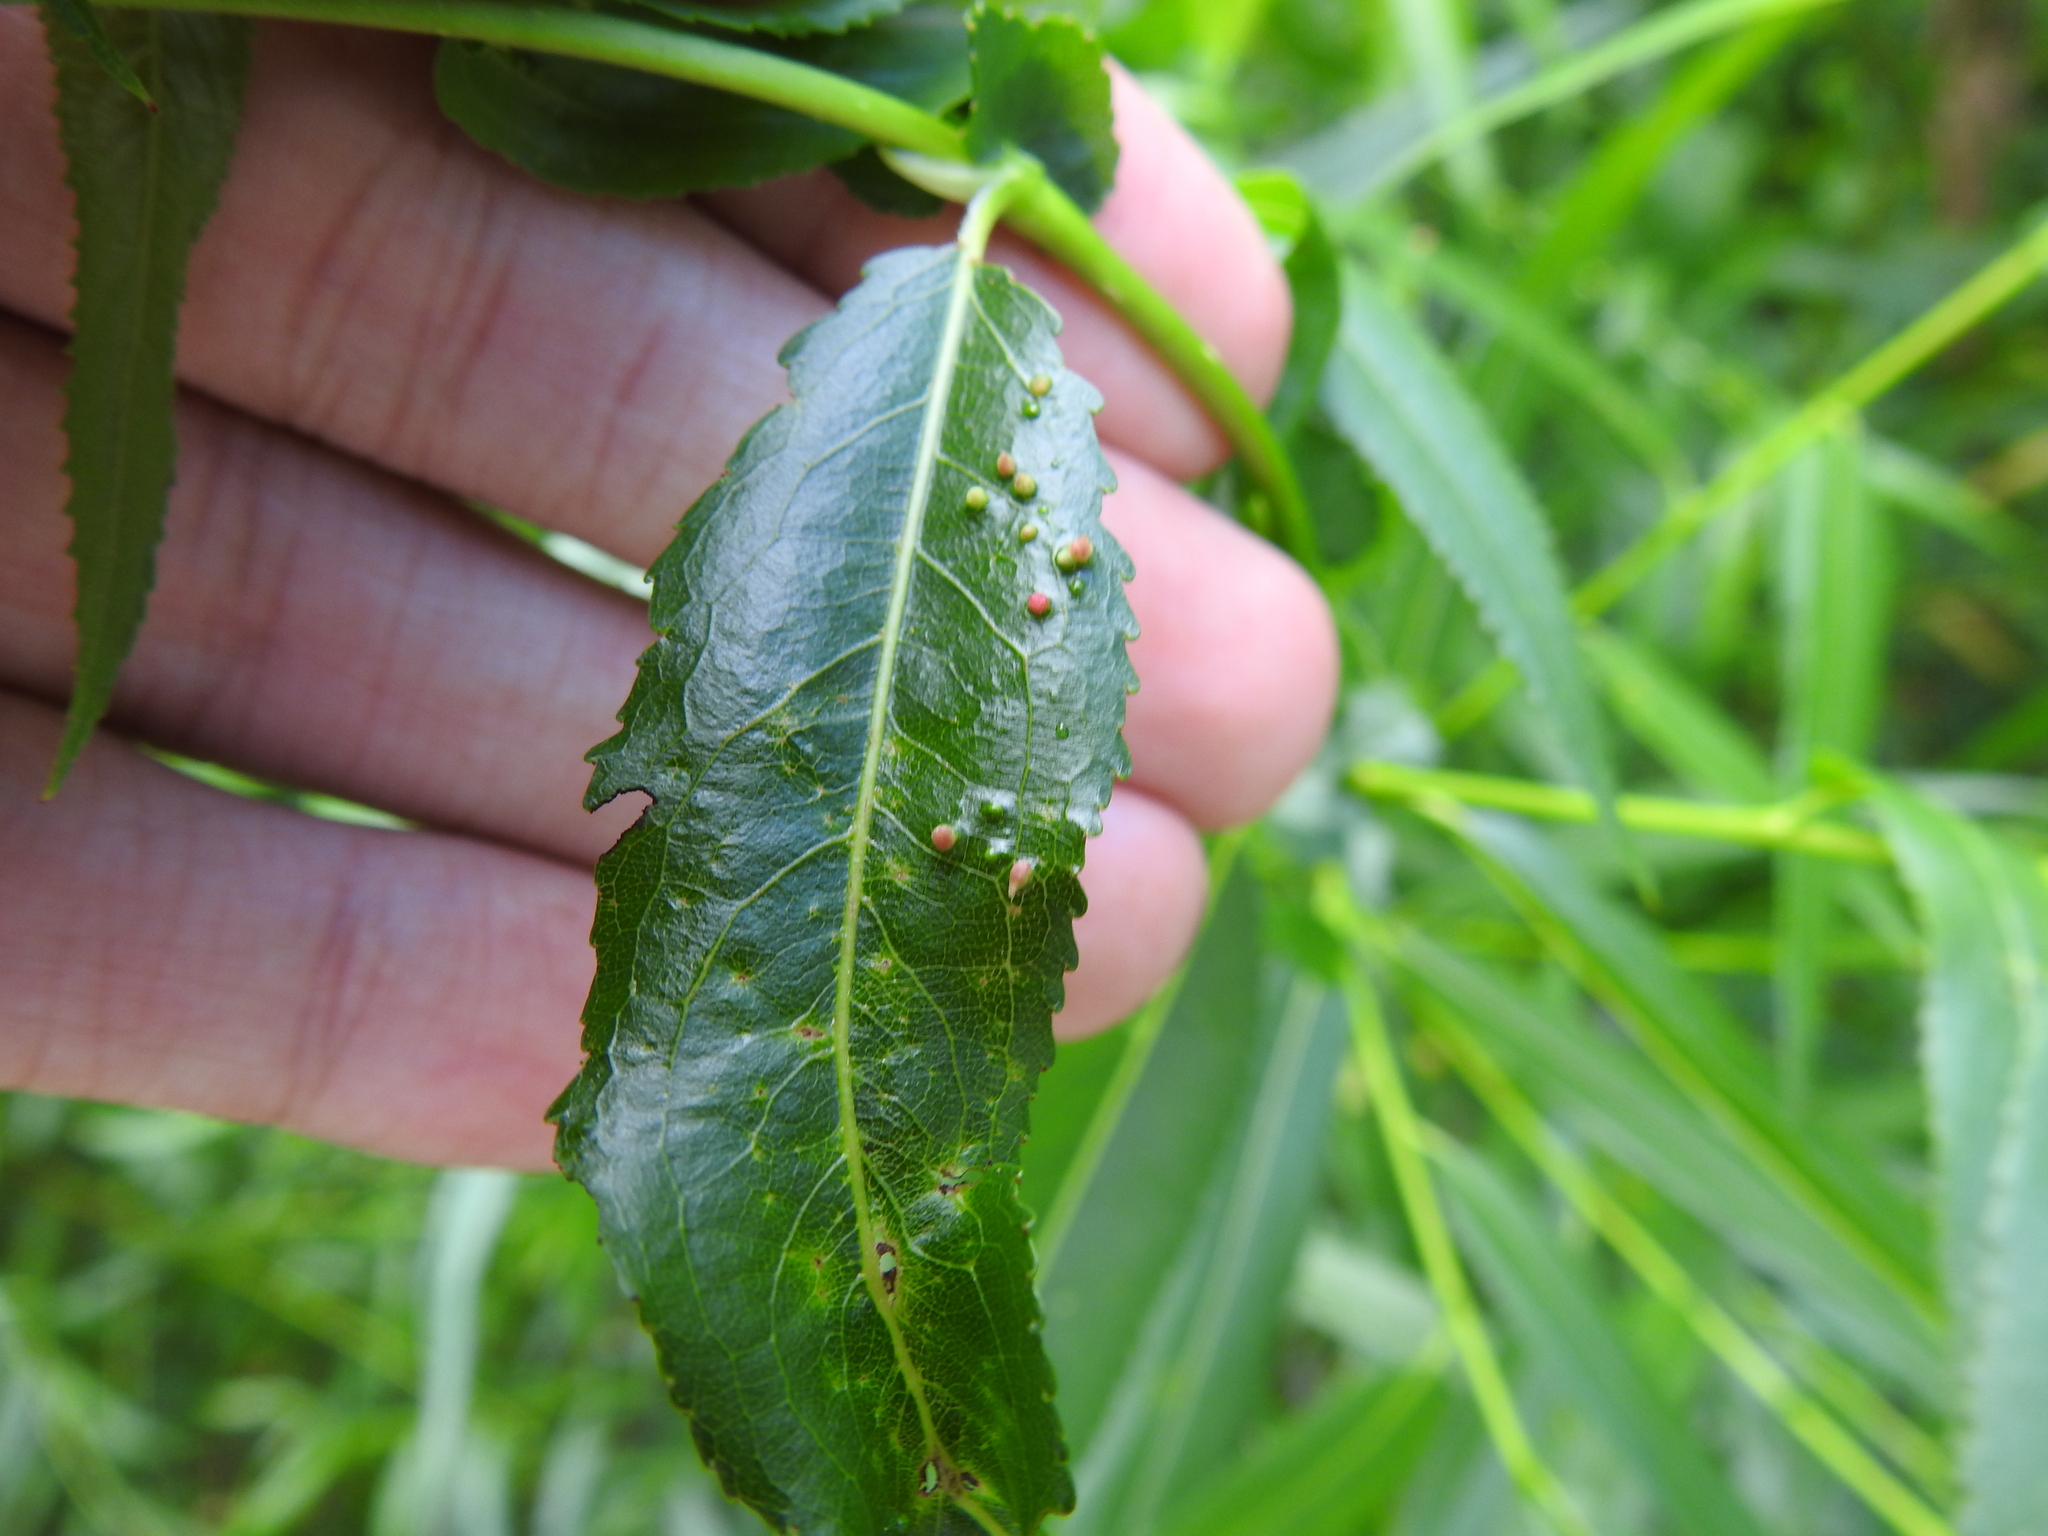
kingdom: Animalia
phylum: Arthropoda
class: Arachnida
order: Trombidiformes
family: Eriophyidae
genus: Aculus
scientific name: Aculus tetanothrix
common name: Willow bead gall mite
